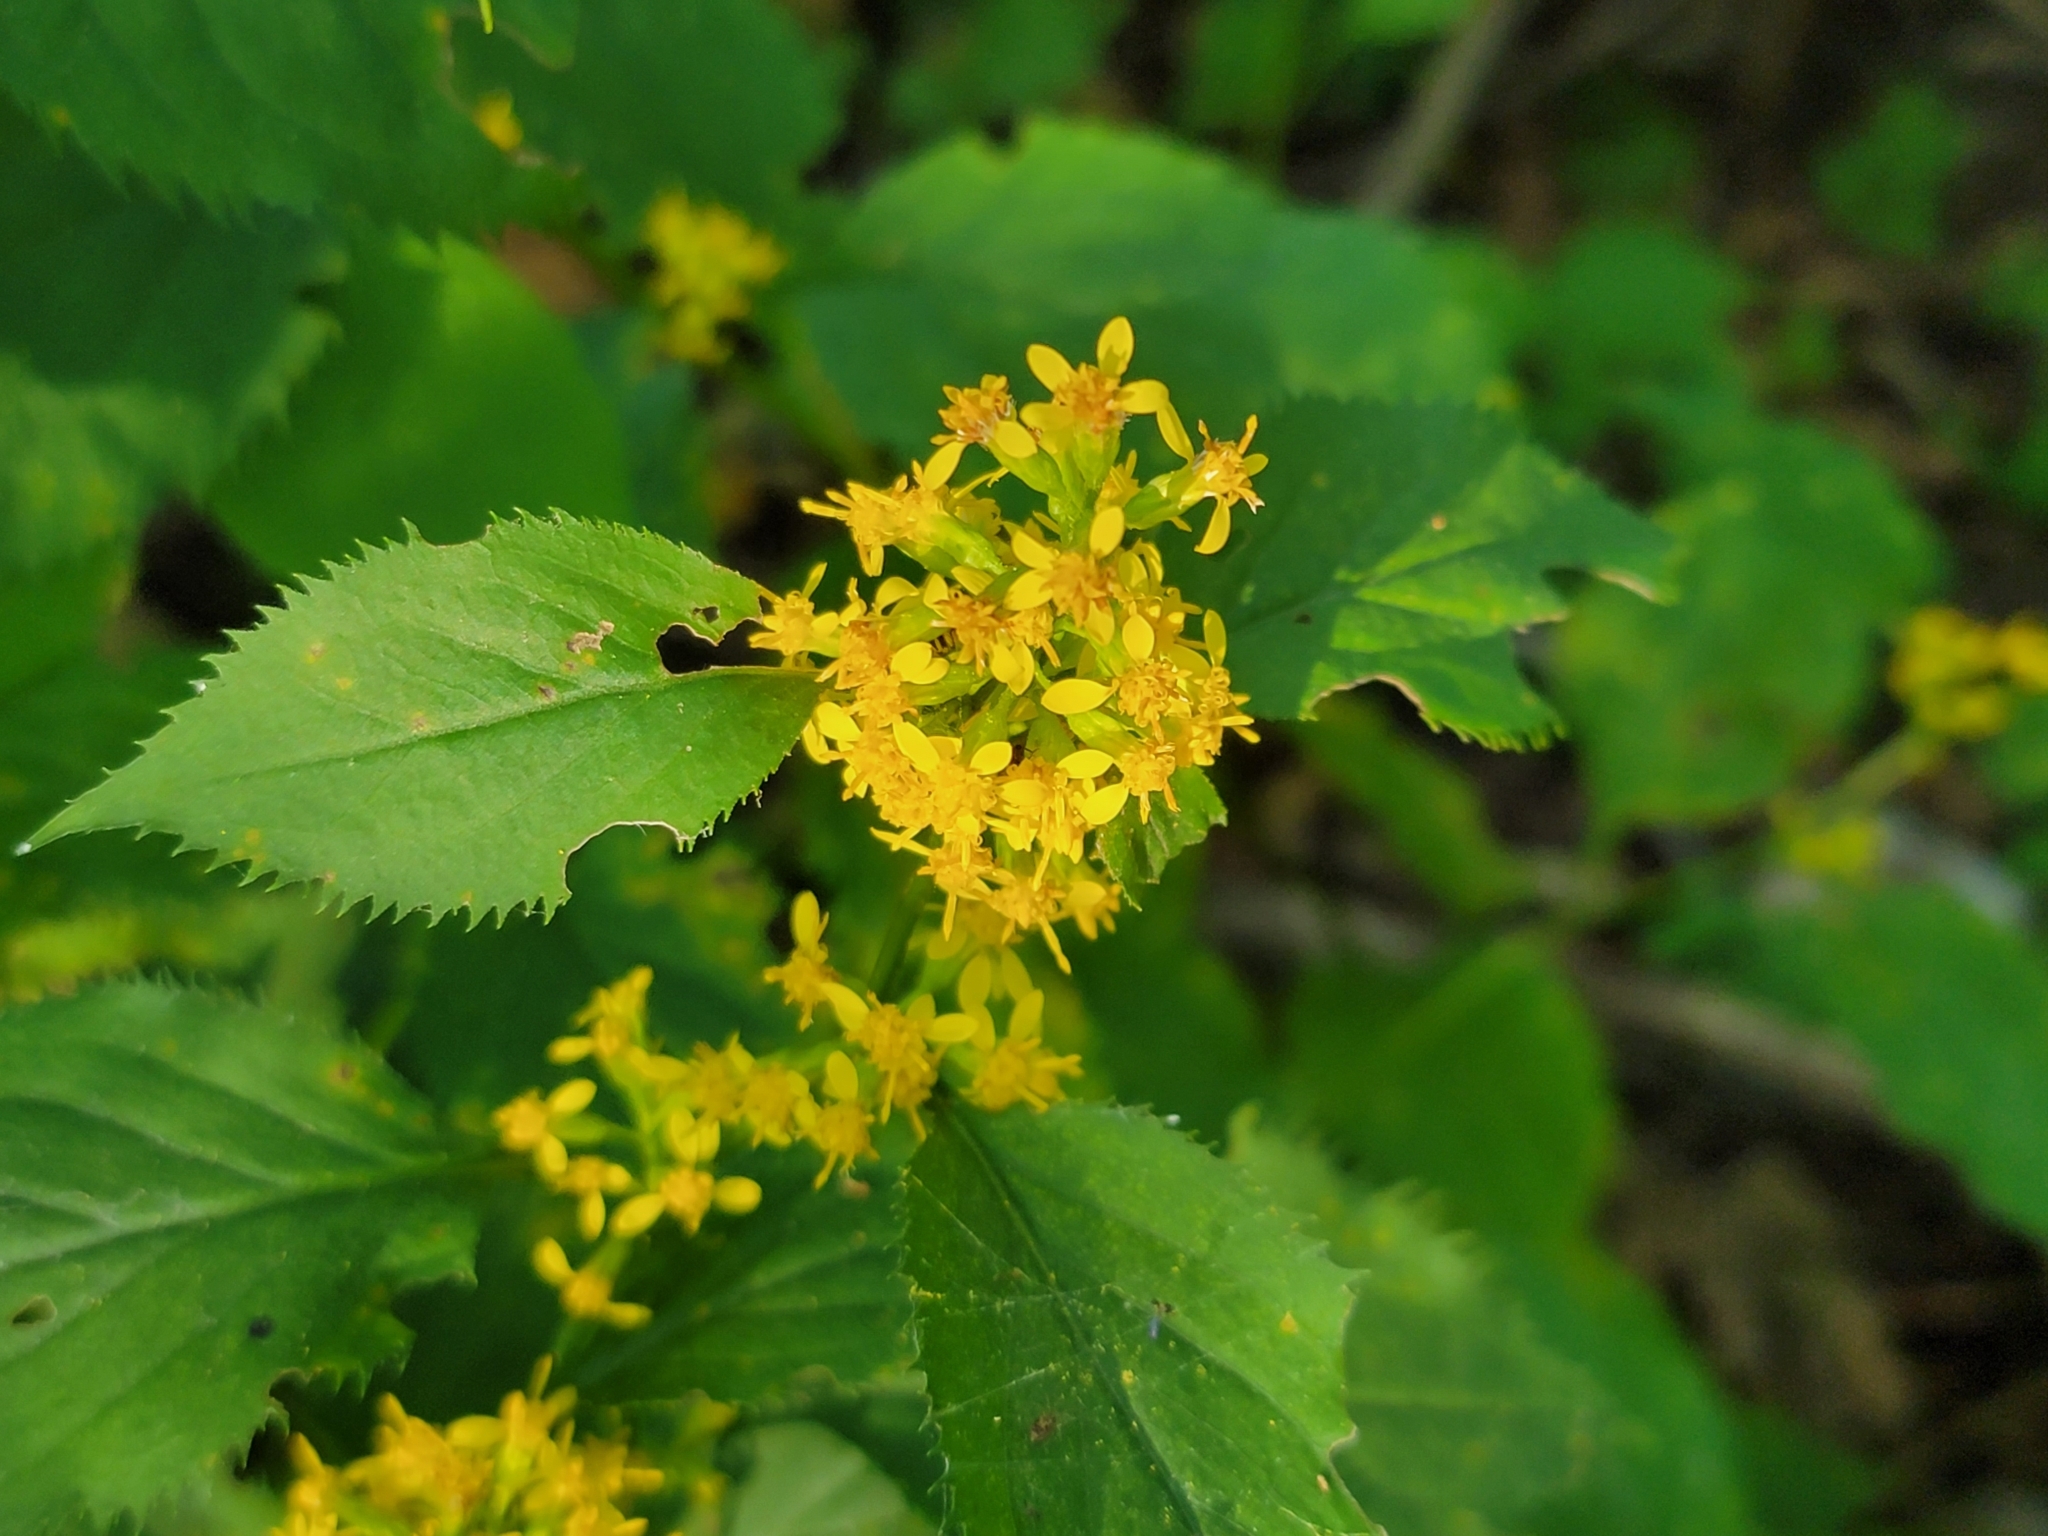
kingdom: Plantae
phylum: Tracheophyta
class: Magnoliopsida
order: Asterales
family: Asteraceae
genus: Solidago
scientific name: Solidago flexicaulis
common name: Zig-zag goldenrod
